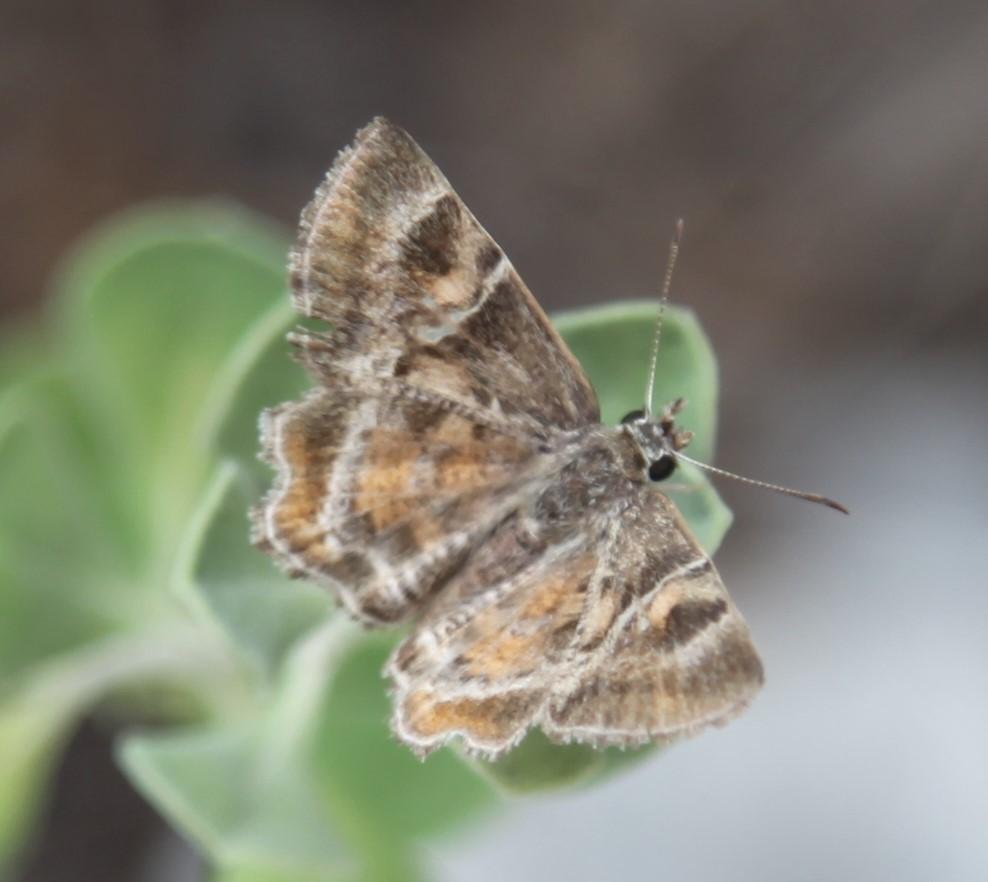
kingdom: Animalia
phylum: Arthropoda
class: Insecta
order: Lepidoptera
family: Hesperiidae
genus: Systasea
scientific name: Systasea pulverulenta
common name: Texas powdered skipper
